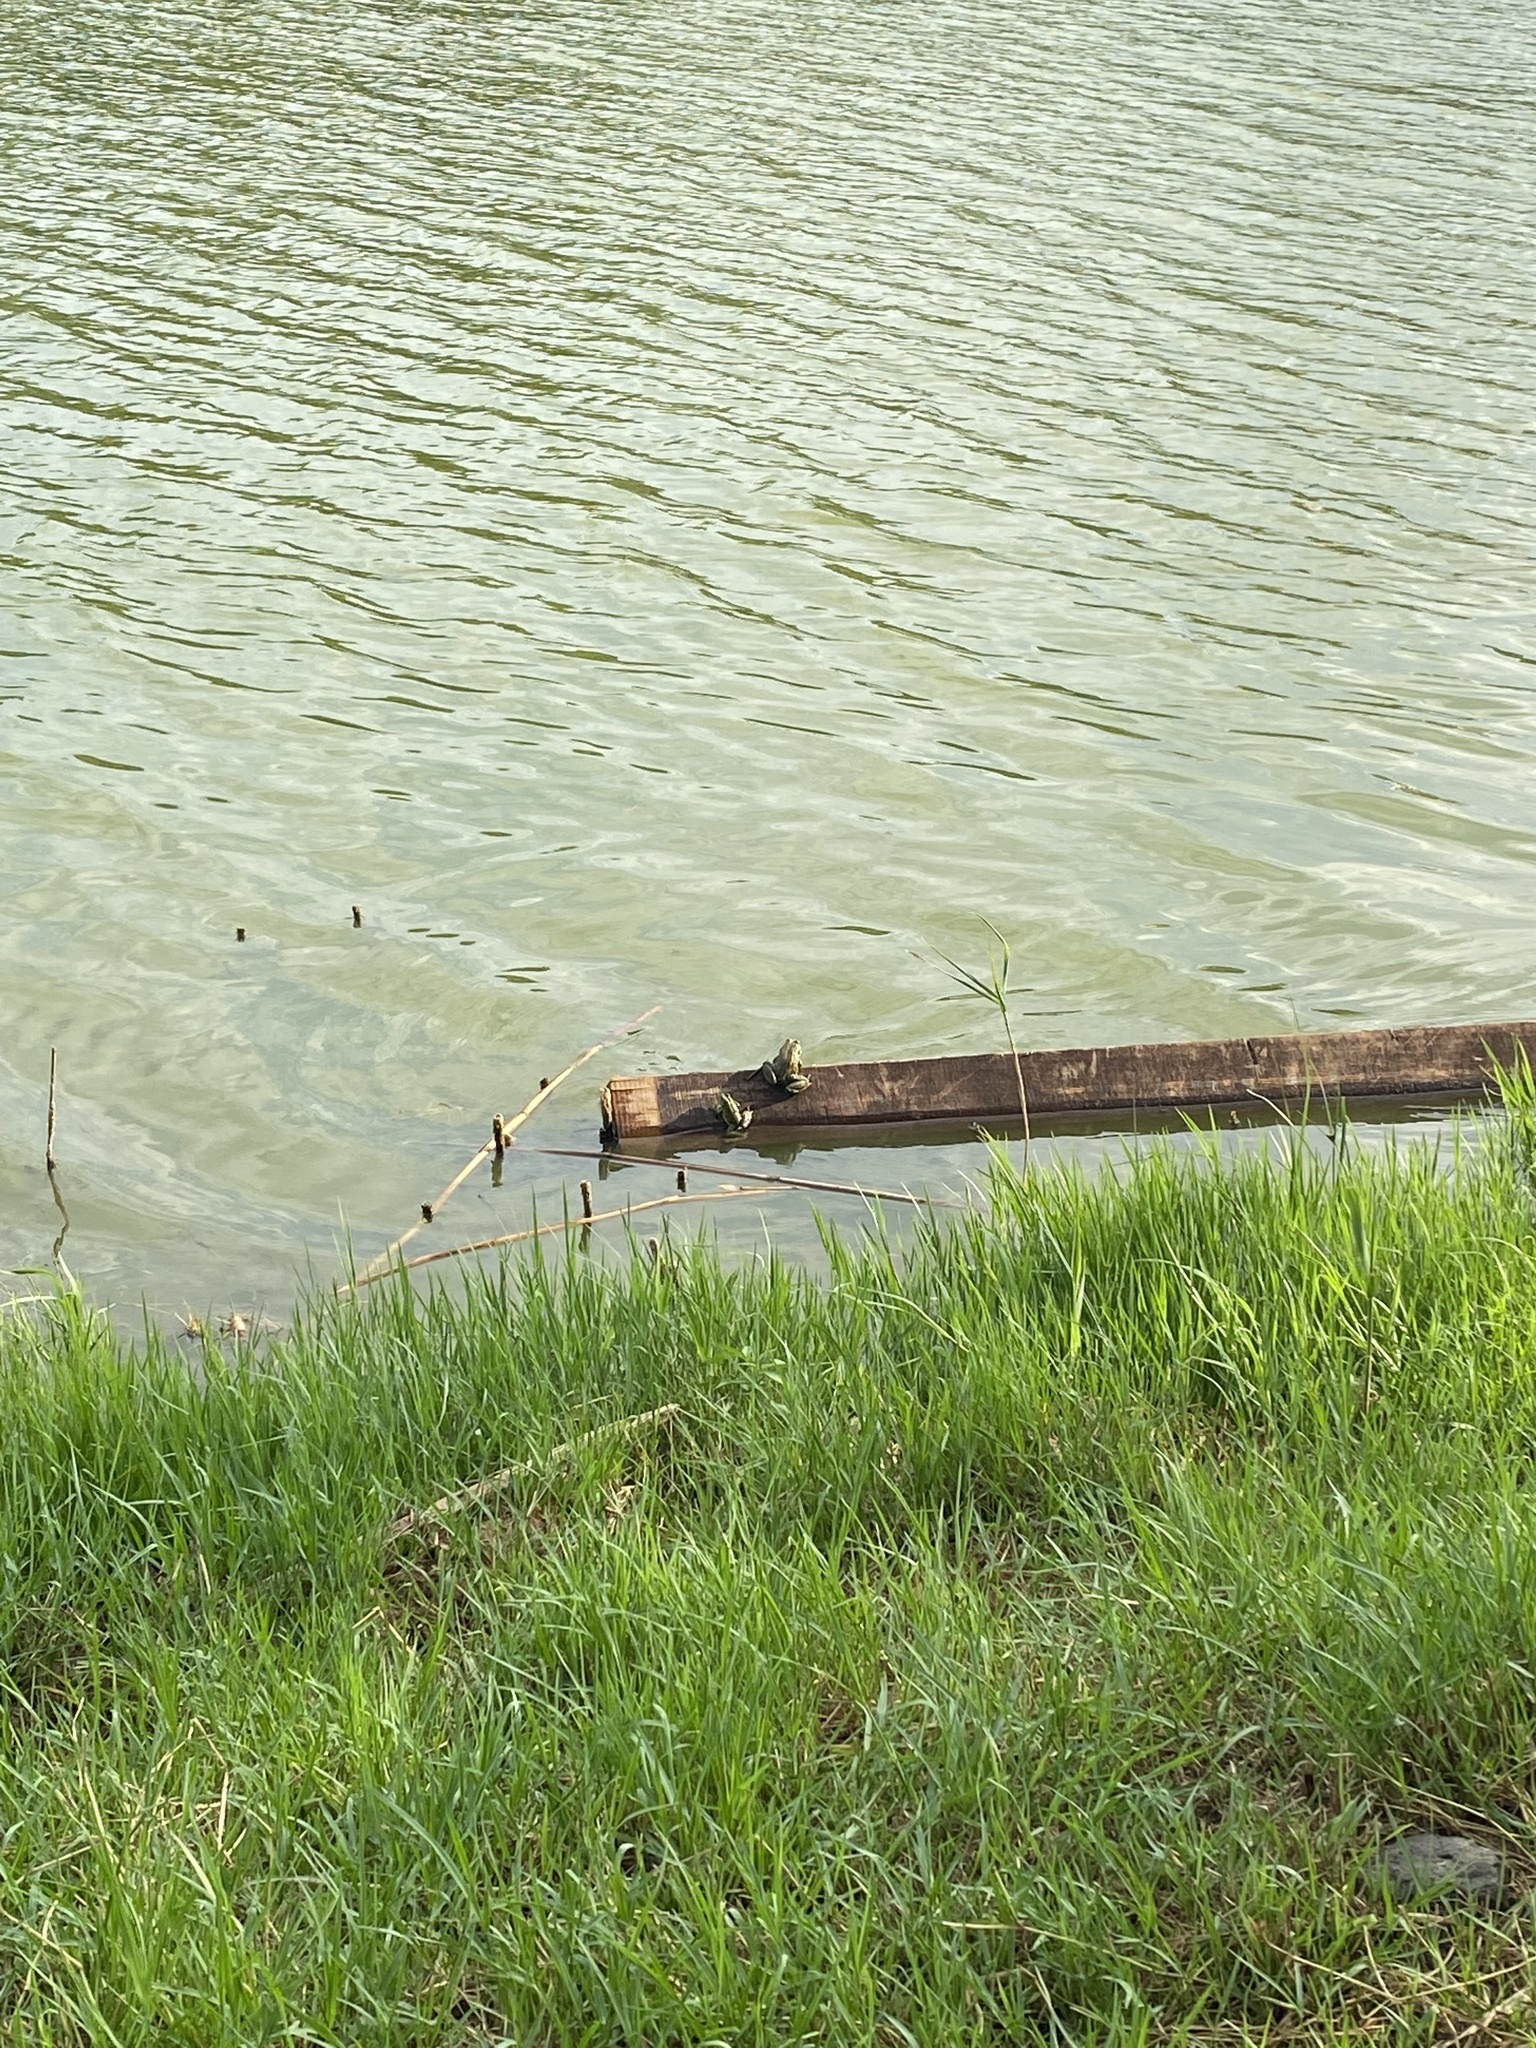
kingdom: Animalia
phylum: Chordata
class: Amphibia
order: Anura
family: Ranidae
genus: Pelophylax
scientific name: Pelophylax ridibundus
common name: Marsh frog
